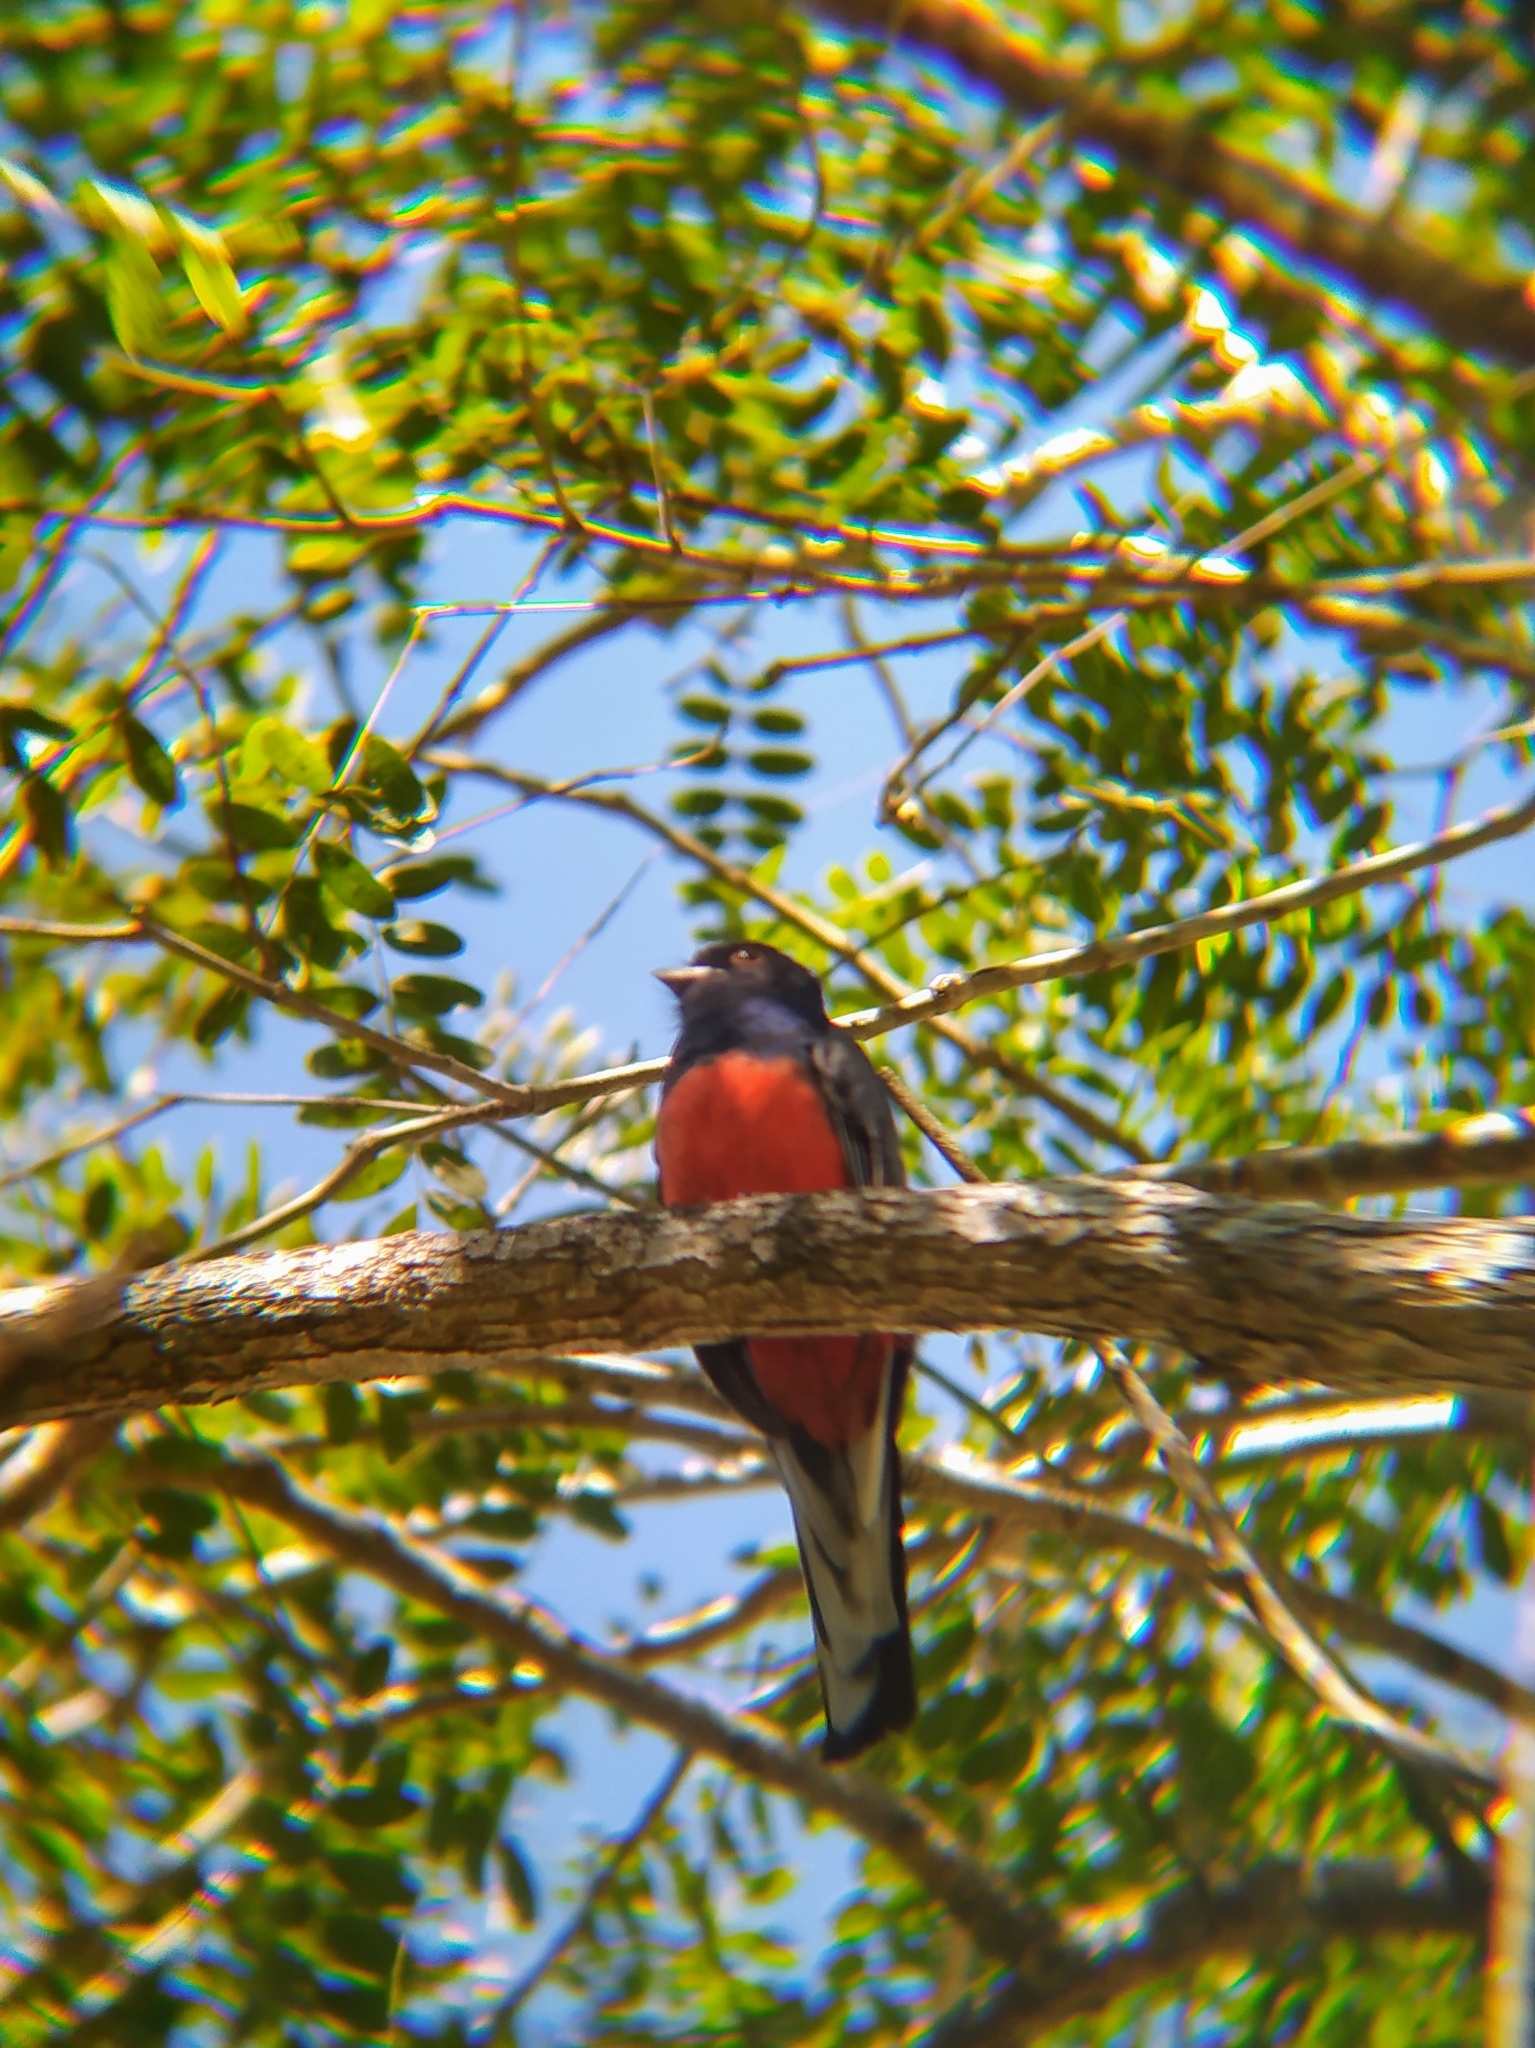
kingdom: Animalia
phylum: Chordata
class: Aves
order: Trogoniformes
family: Trogonidae
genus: Trogon
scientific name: Trogon surrucura
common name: Surucua trogon
